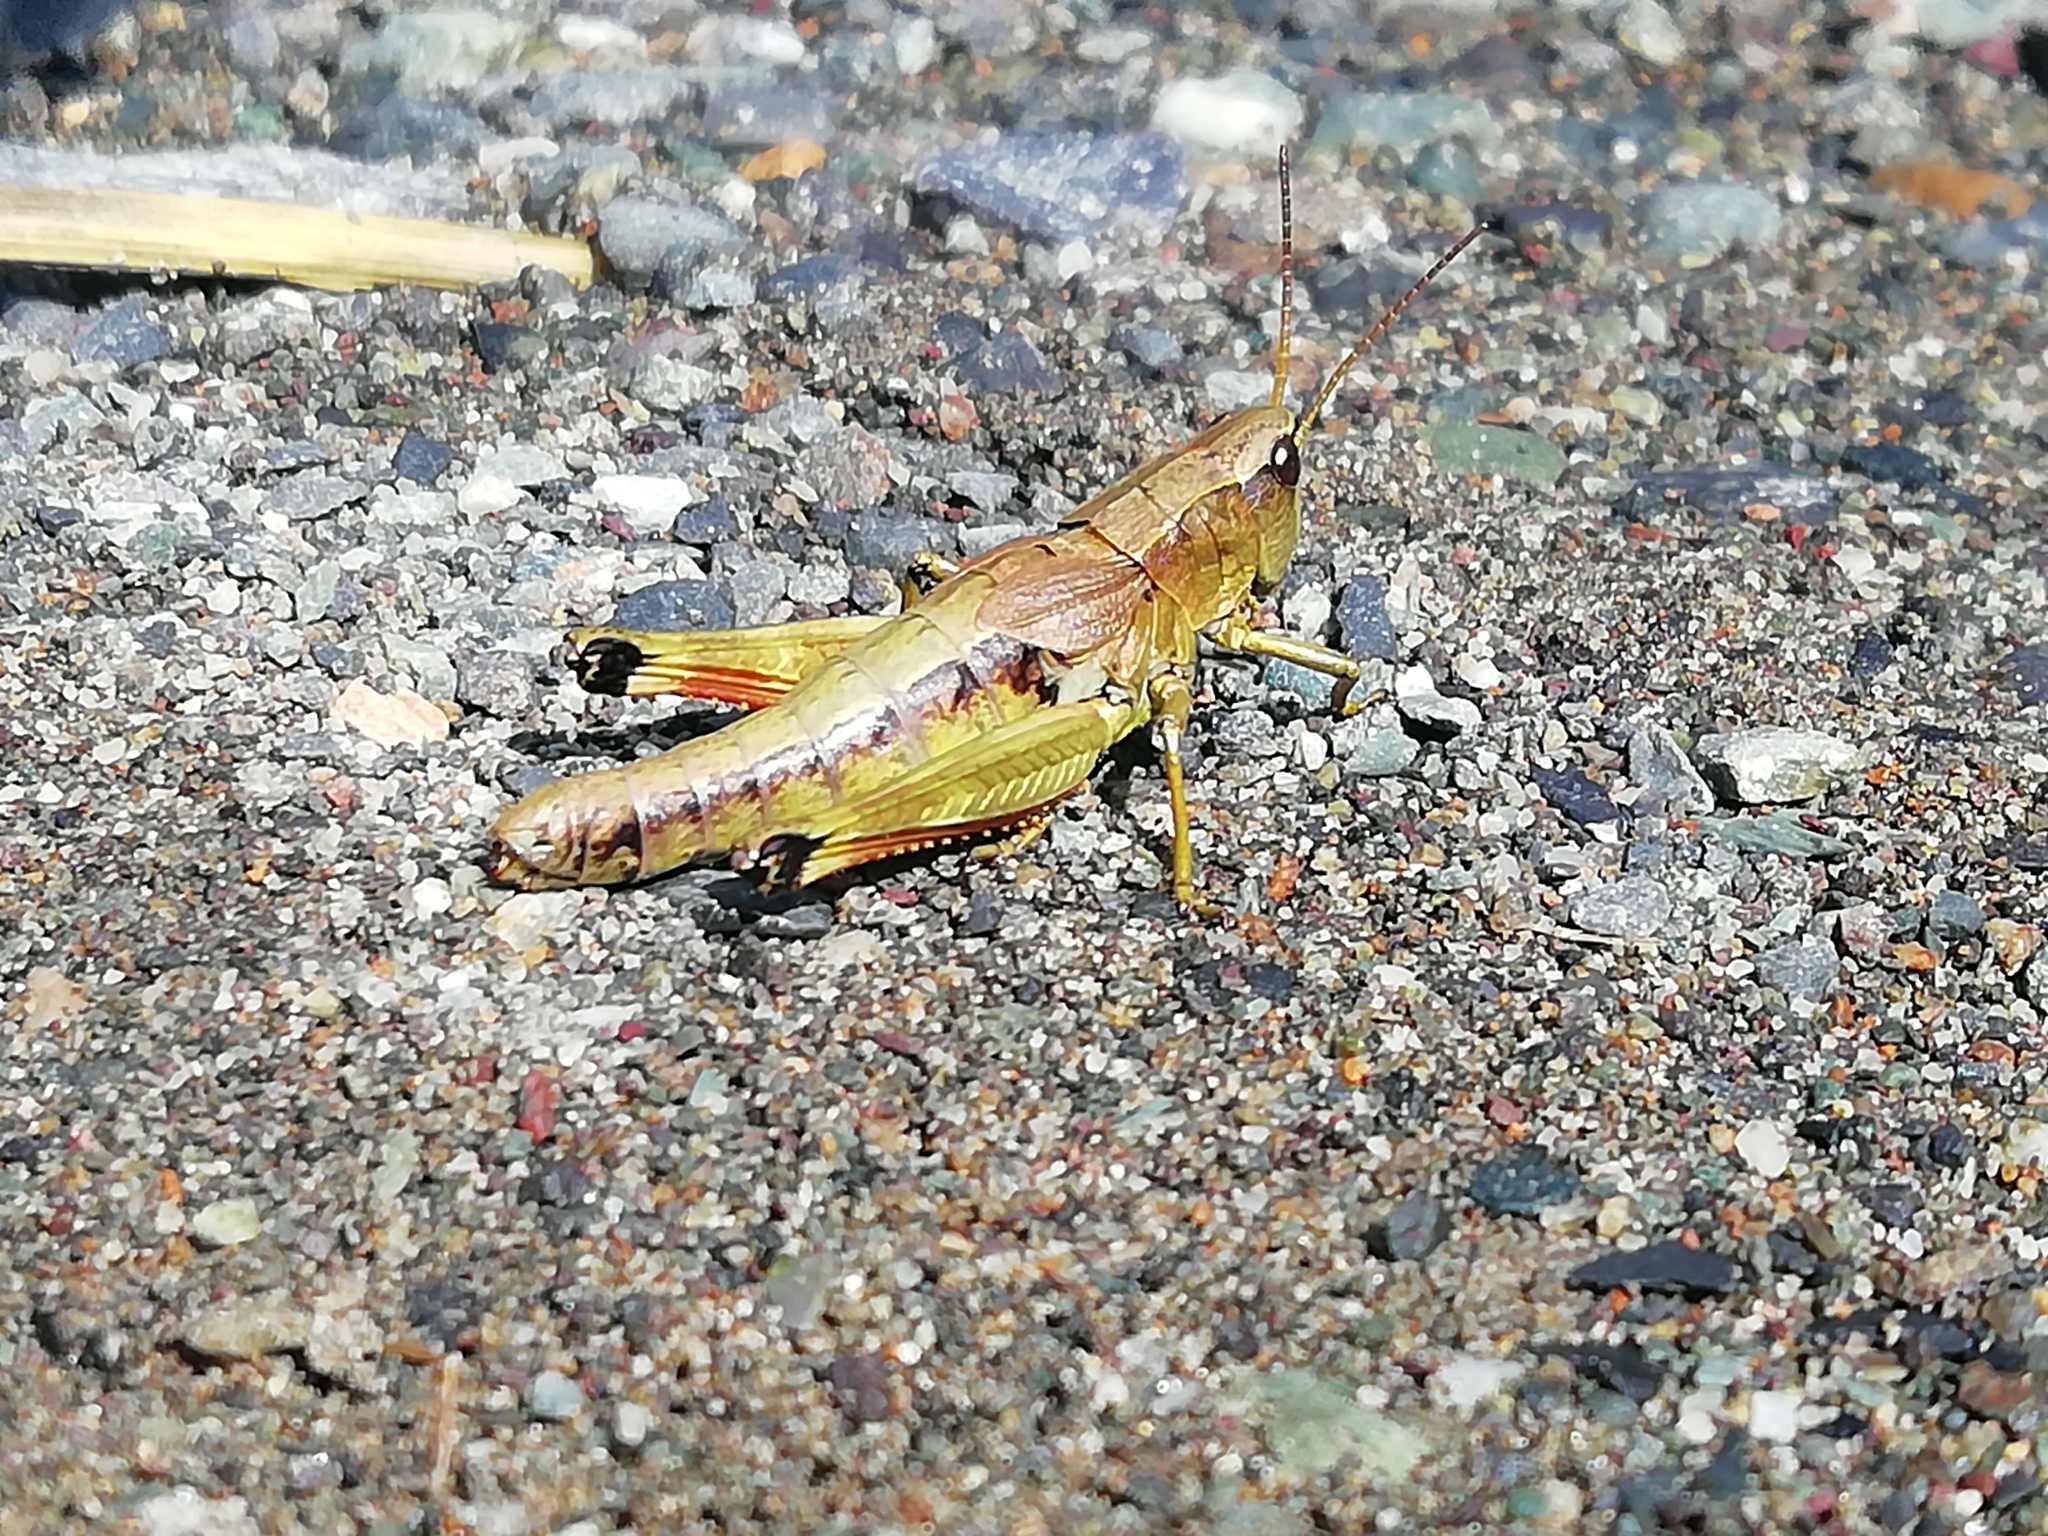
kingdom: Animalia
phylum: Arthropoda
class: Insecta
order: Orthoptera
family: Acrididae
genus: Podismopsis
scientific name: Podismopsis poppiusi
